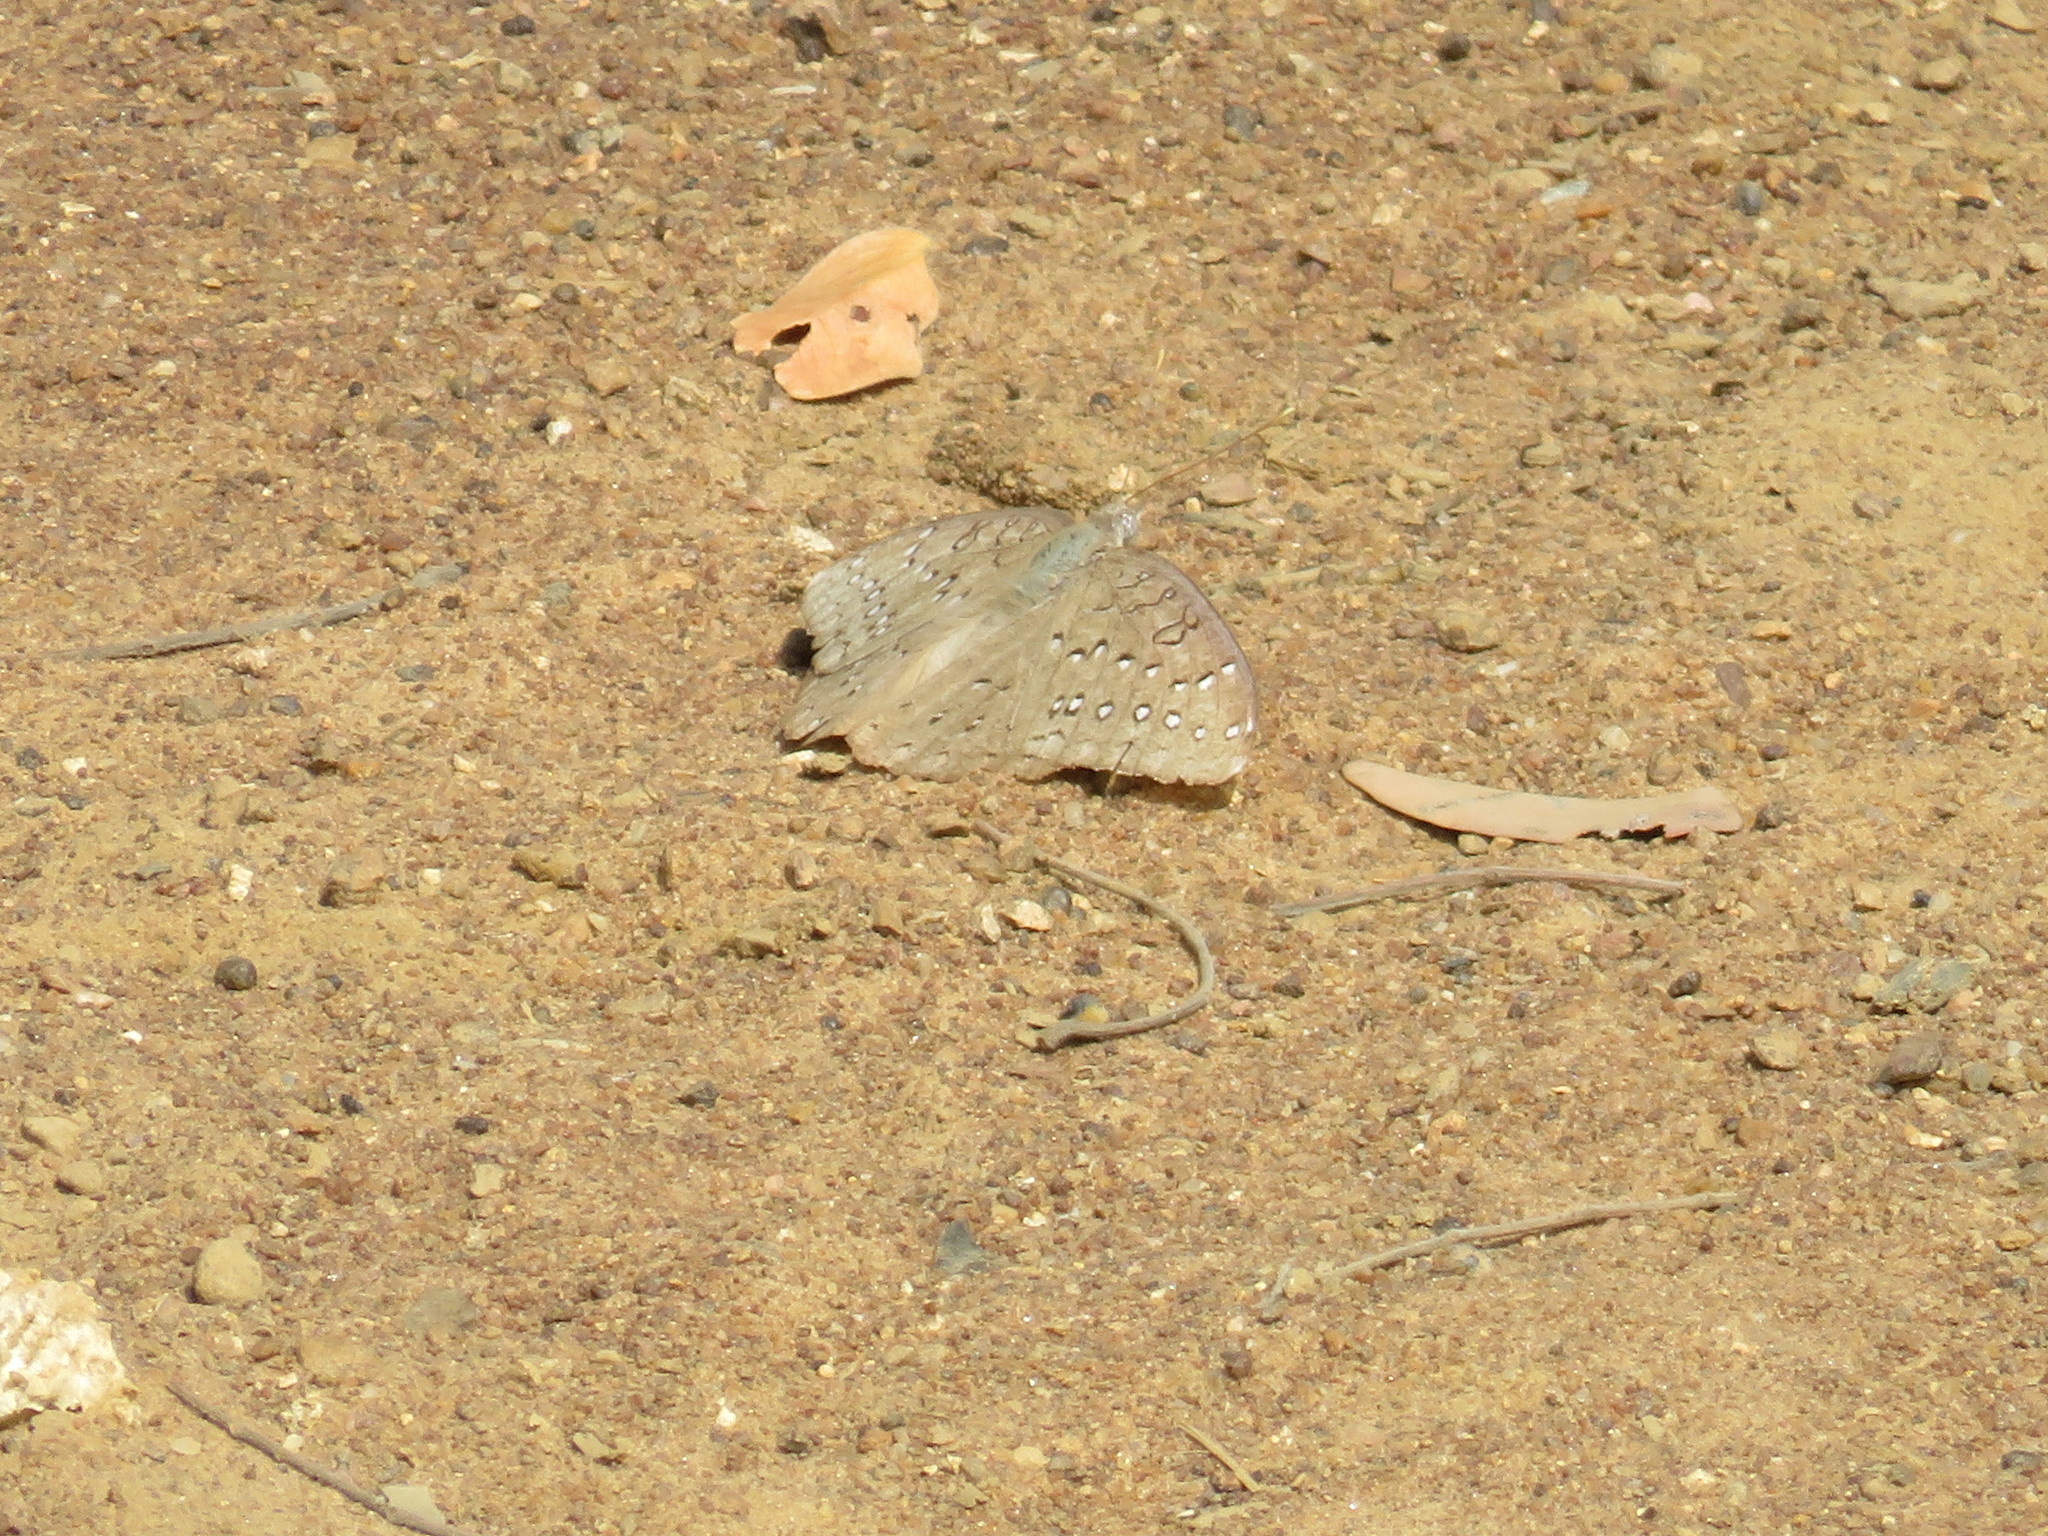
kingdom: Animalia
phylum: Arthropoda
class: Insecta
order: Lepidoptera
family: Nymphalidae
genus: Hamanumida
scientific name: Hamanumida daedalus
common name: Guinea-fowl butterfly
